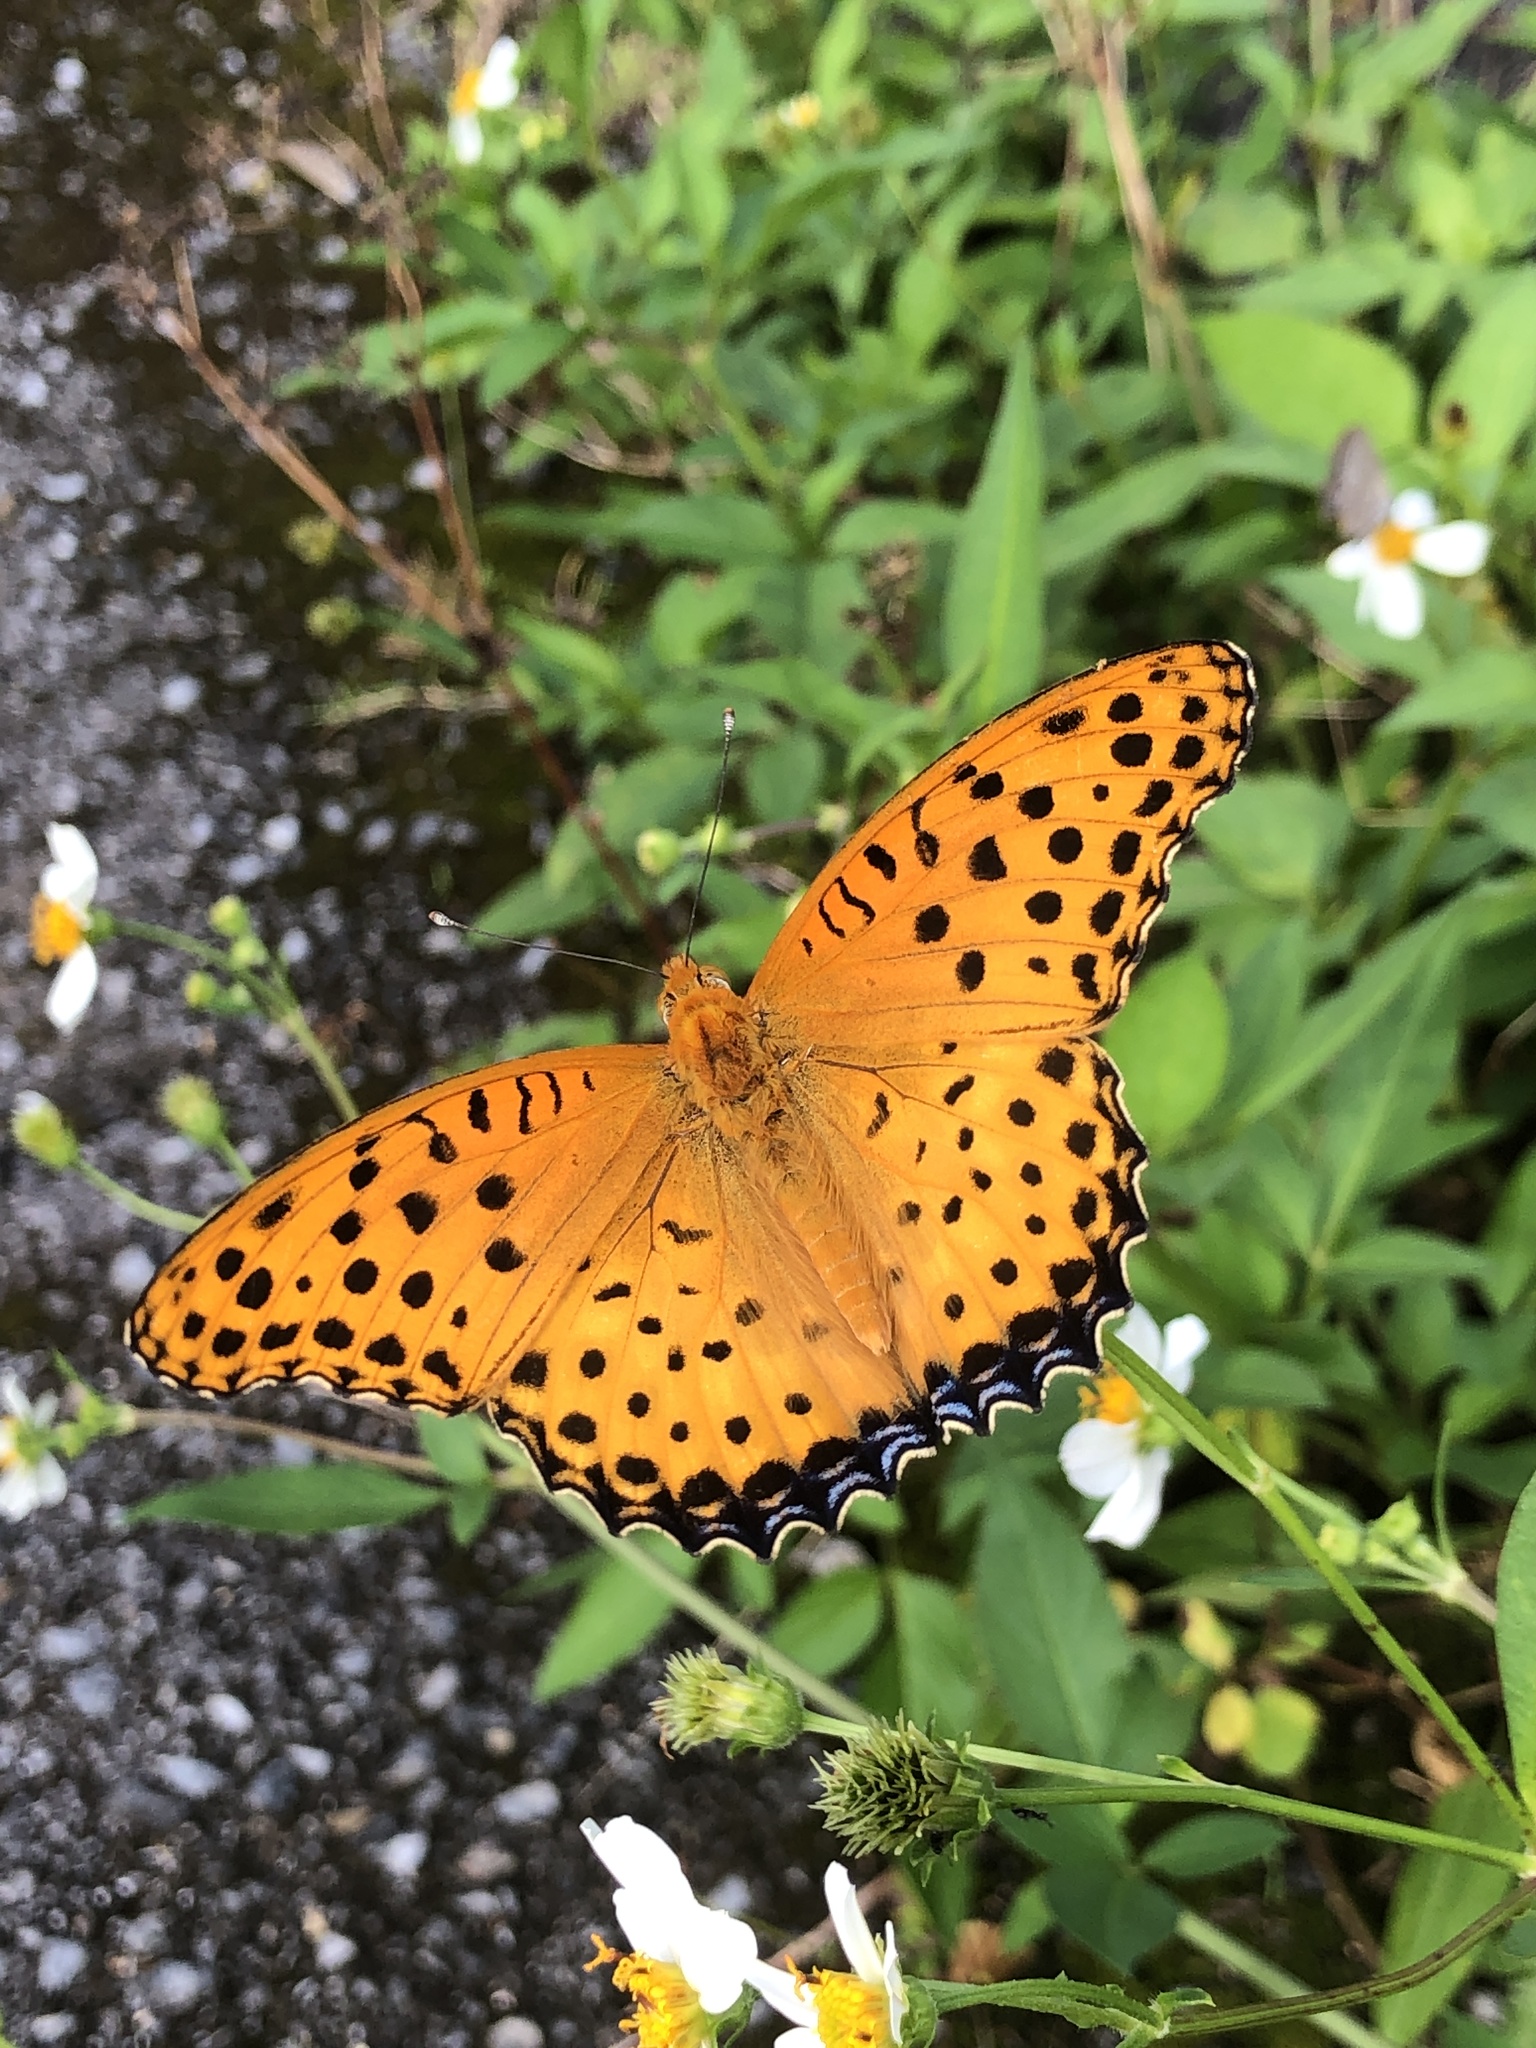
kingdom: Animalia
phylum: Arthropoda
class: Insecta
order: Lepidoptera
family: Nymphalidae
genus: Argynnis
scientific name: Argynnis hyperbius
